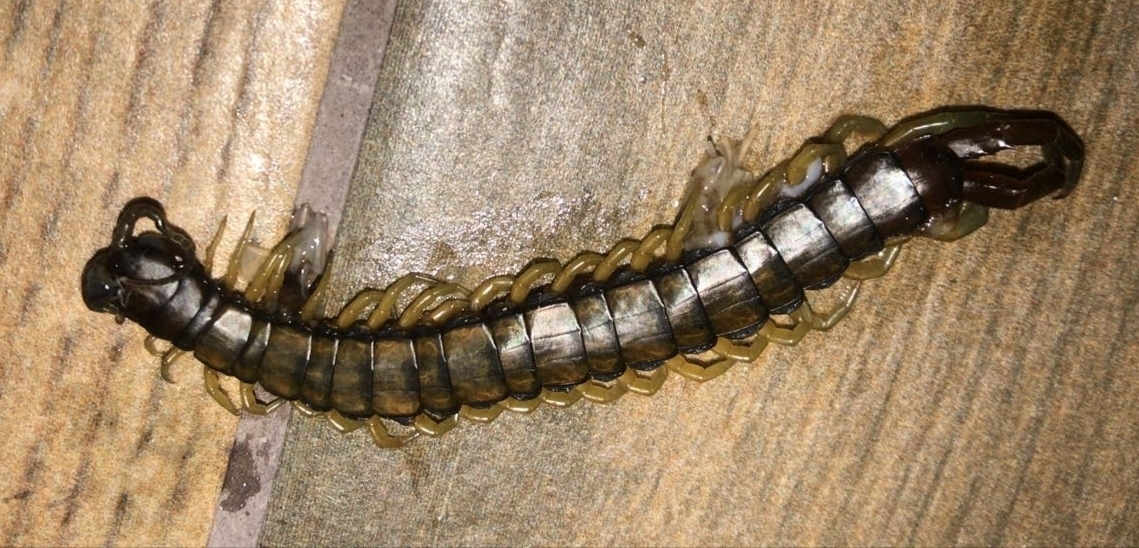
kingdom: Animalia
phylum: Arthropoda
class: Chilopoda
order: Scolopendromorpha
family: Scolopendridae
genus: Scolopendra
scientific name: Scolopendra cingulata
